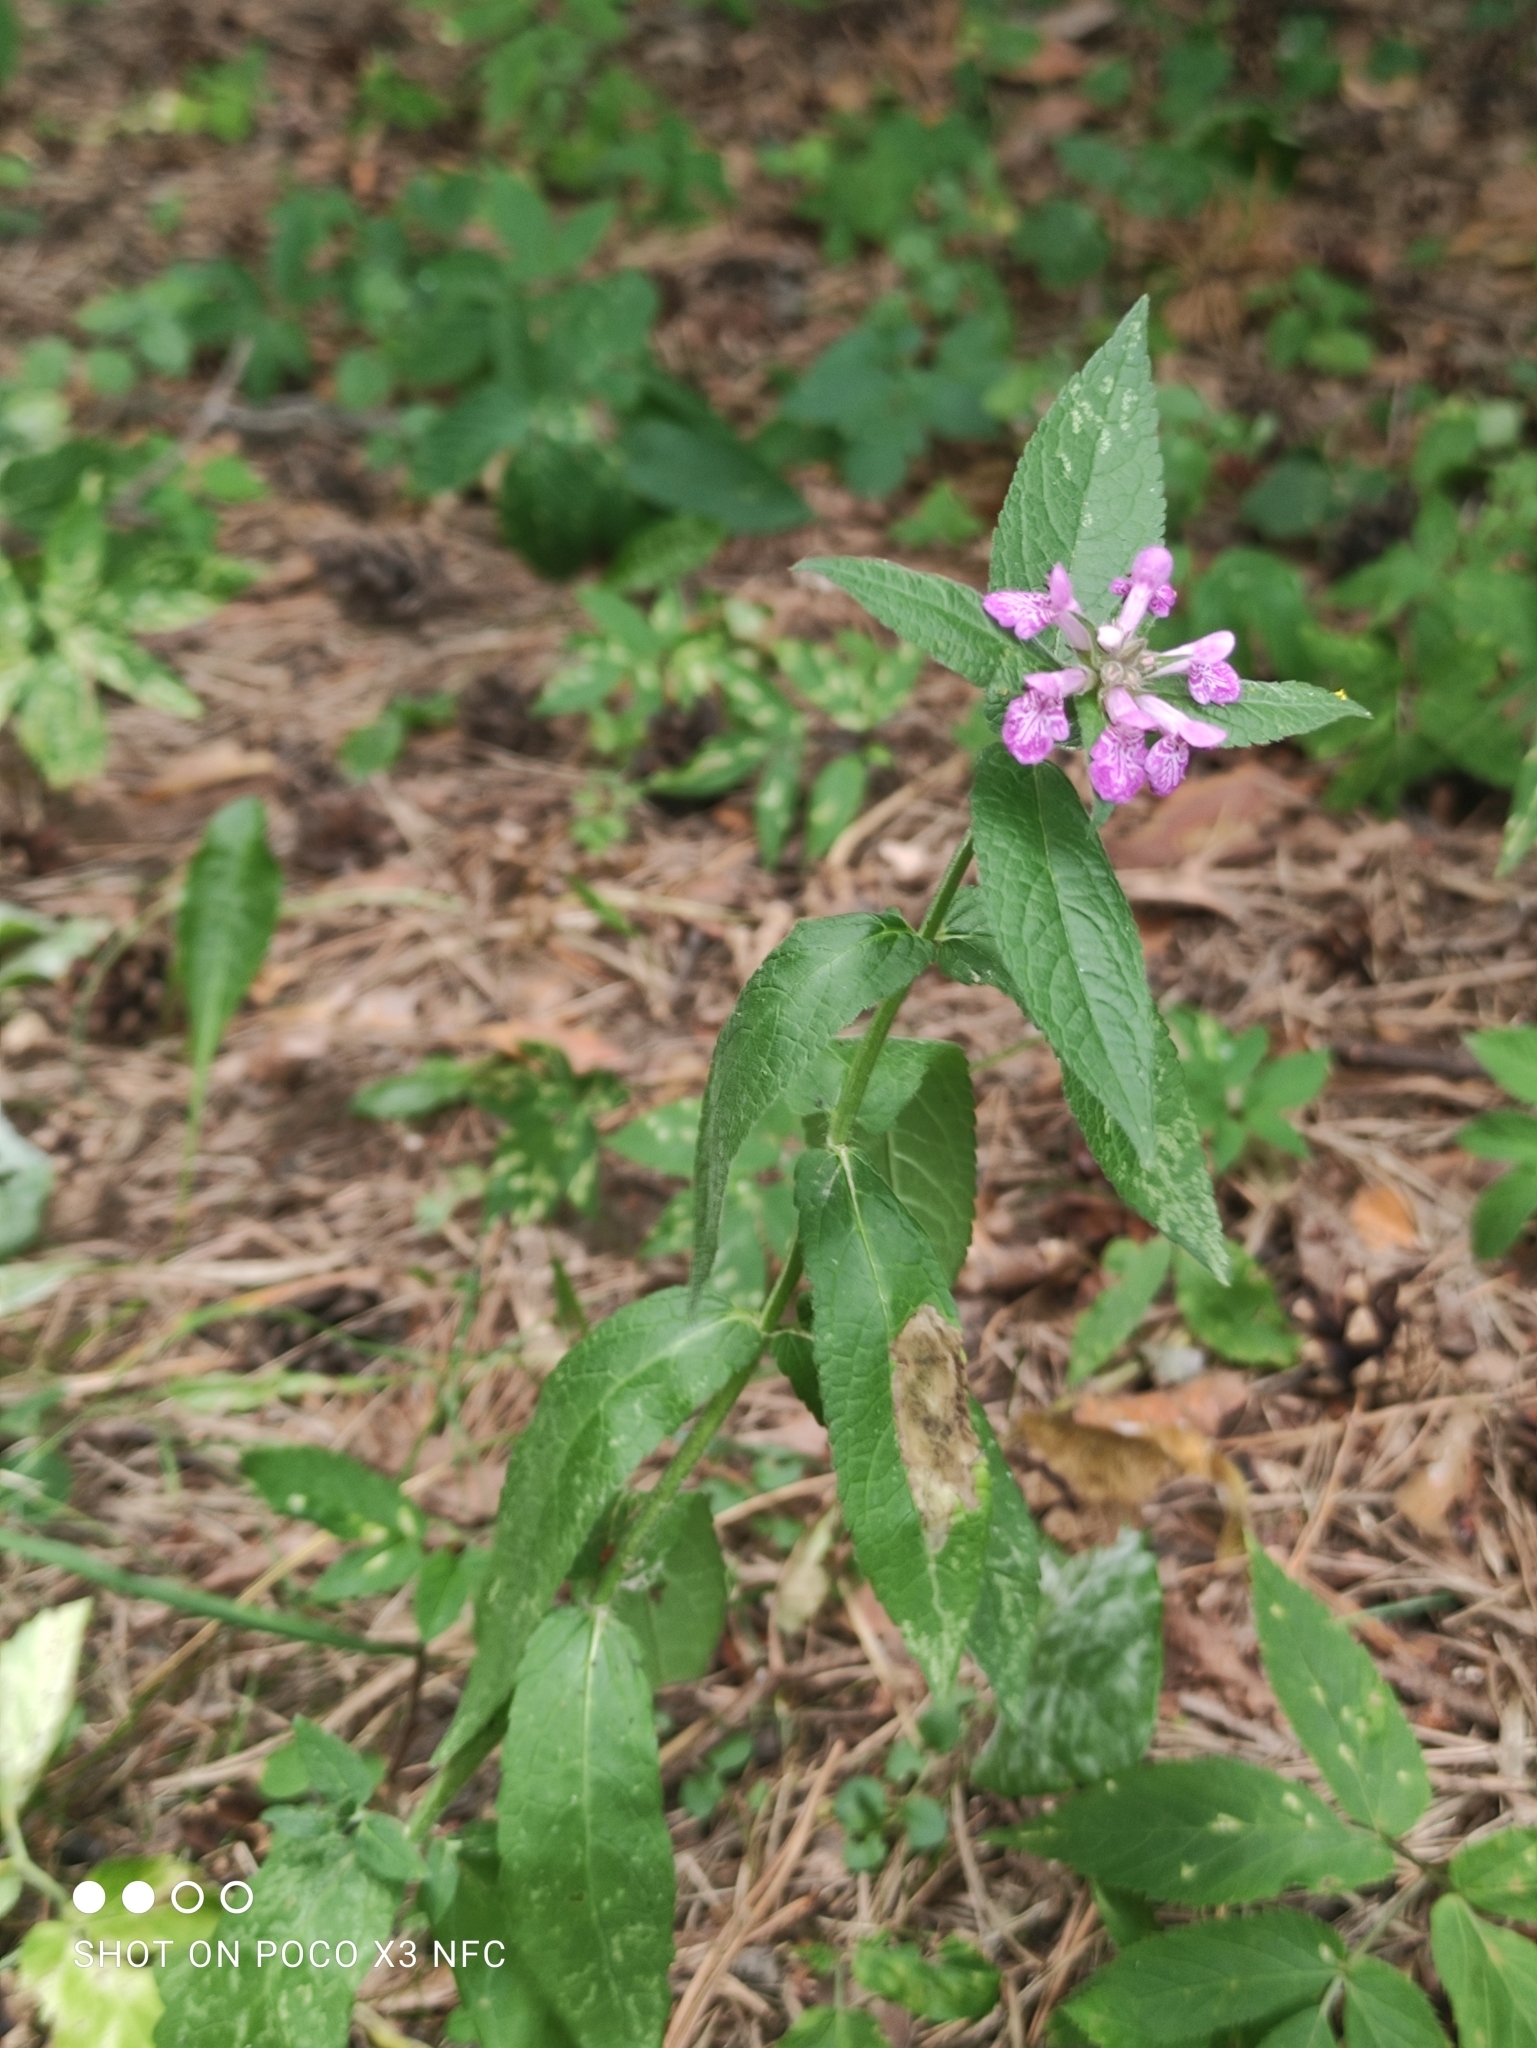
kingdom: Plantae
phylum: Tracheophyta
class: Magnoliopsida
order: Lamiales
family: Lamiaceae
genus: Stachys
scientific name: Stachys palustris
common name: Marsh woundwort
